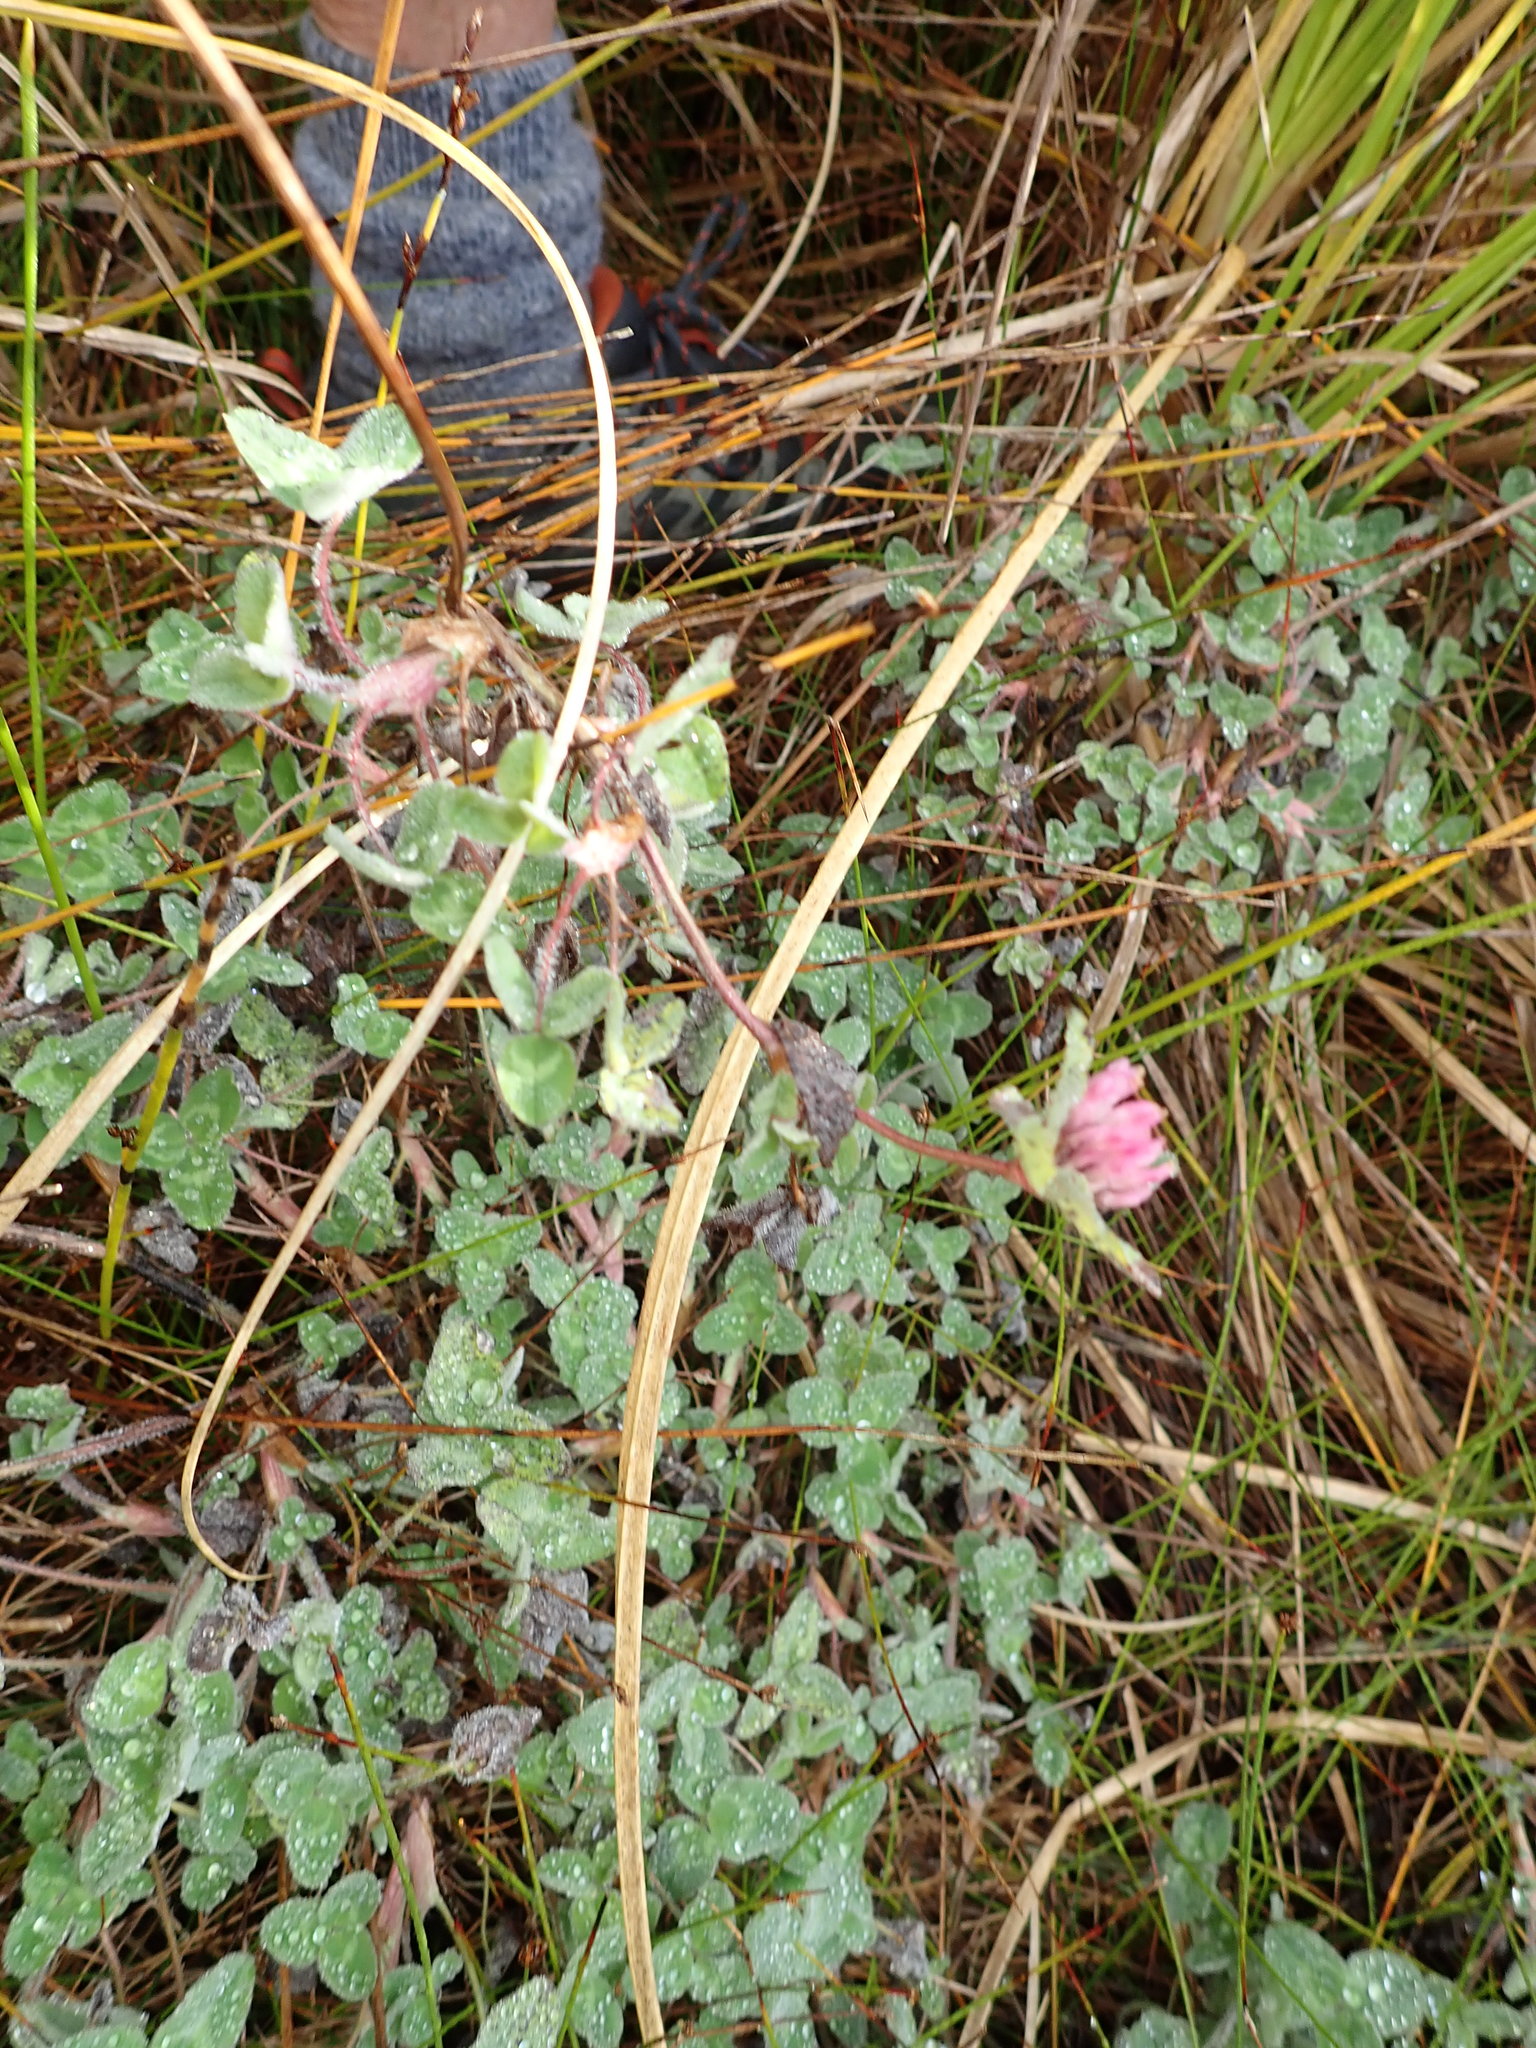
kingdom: Plantae
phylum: Tracheophyta
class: Magnoliopsida
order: Fabales
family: Fabaceae
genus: Trifolium
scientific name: Trifolium pratense
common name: Red clover
